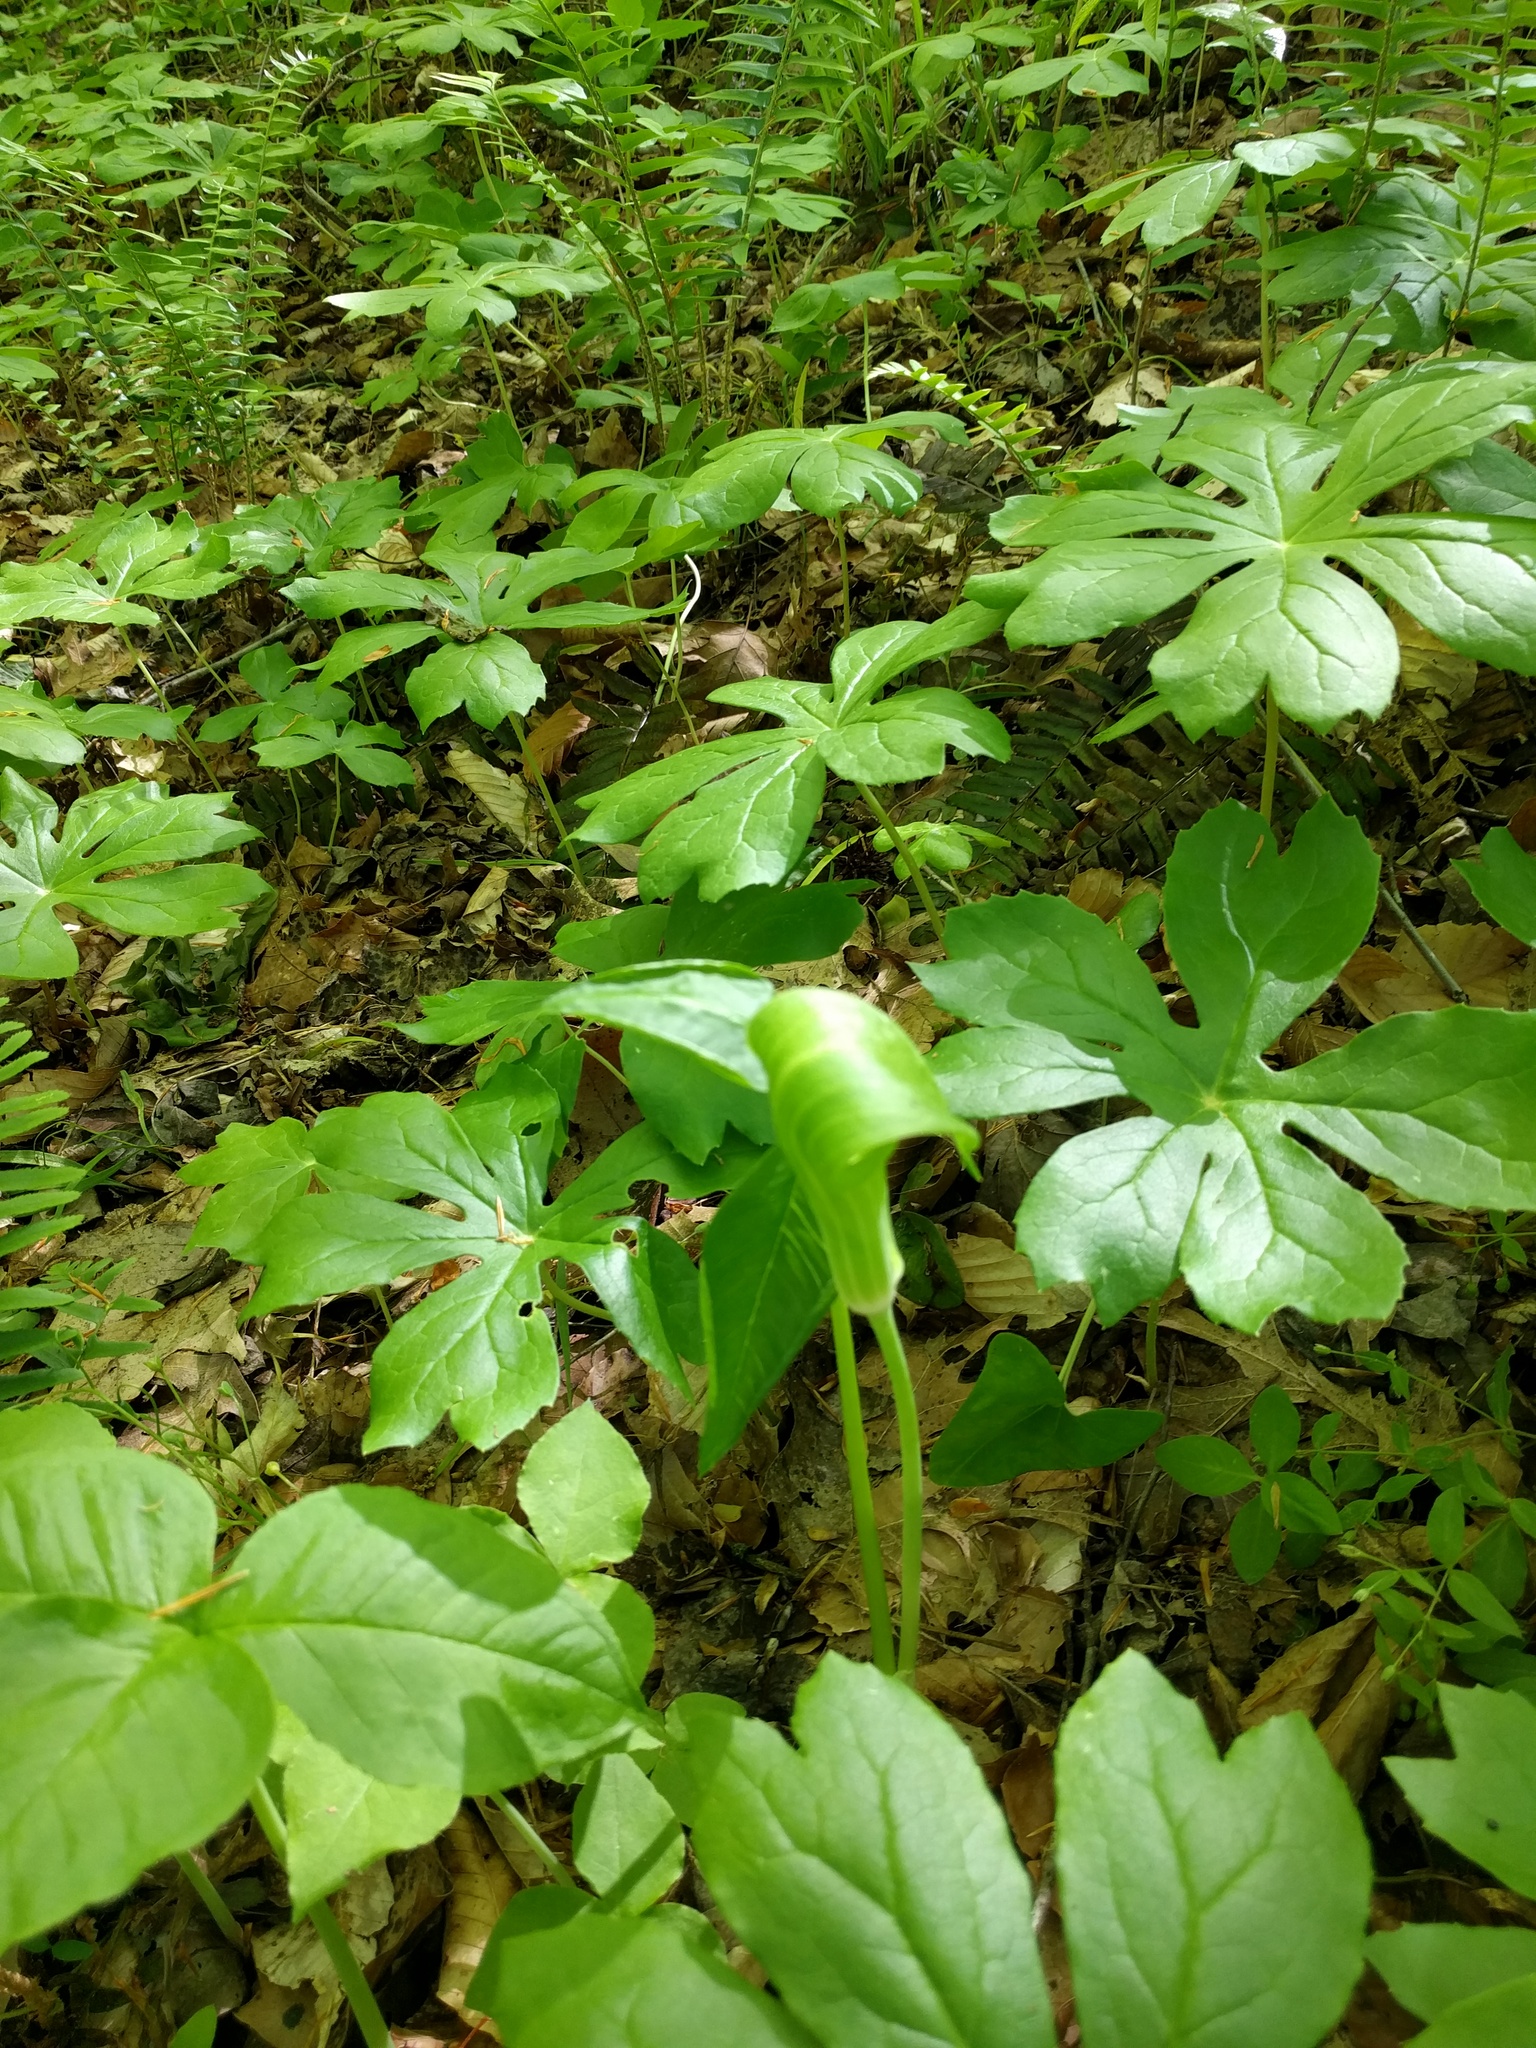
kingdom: Plantae
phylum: Tracheophyta
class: Liliopsida
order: Alismatales
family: Araceae
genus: Arisaema
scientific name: Arisaema triphyllum
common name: Jack-in-the-pulpit
